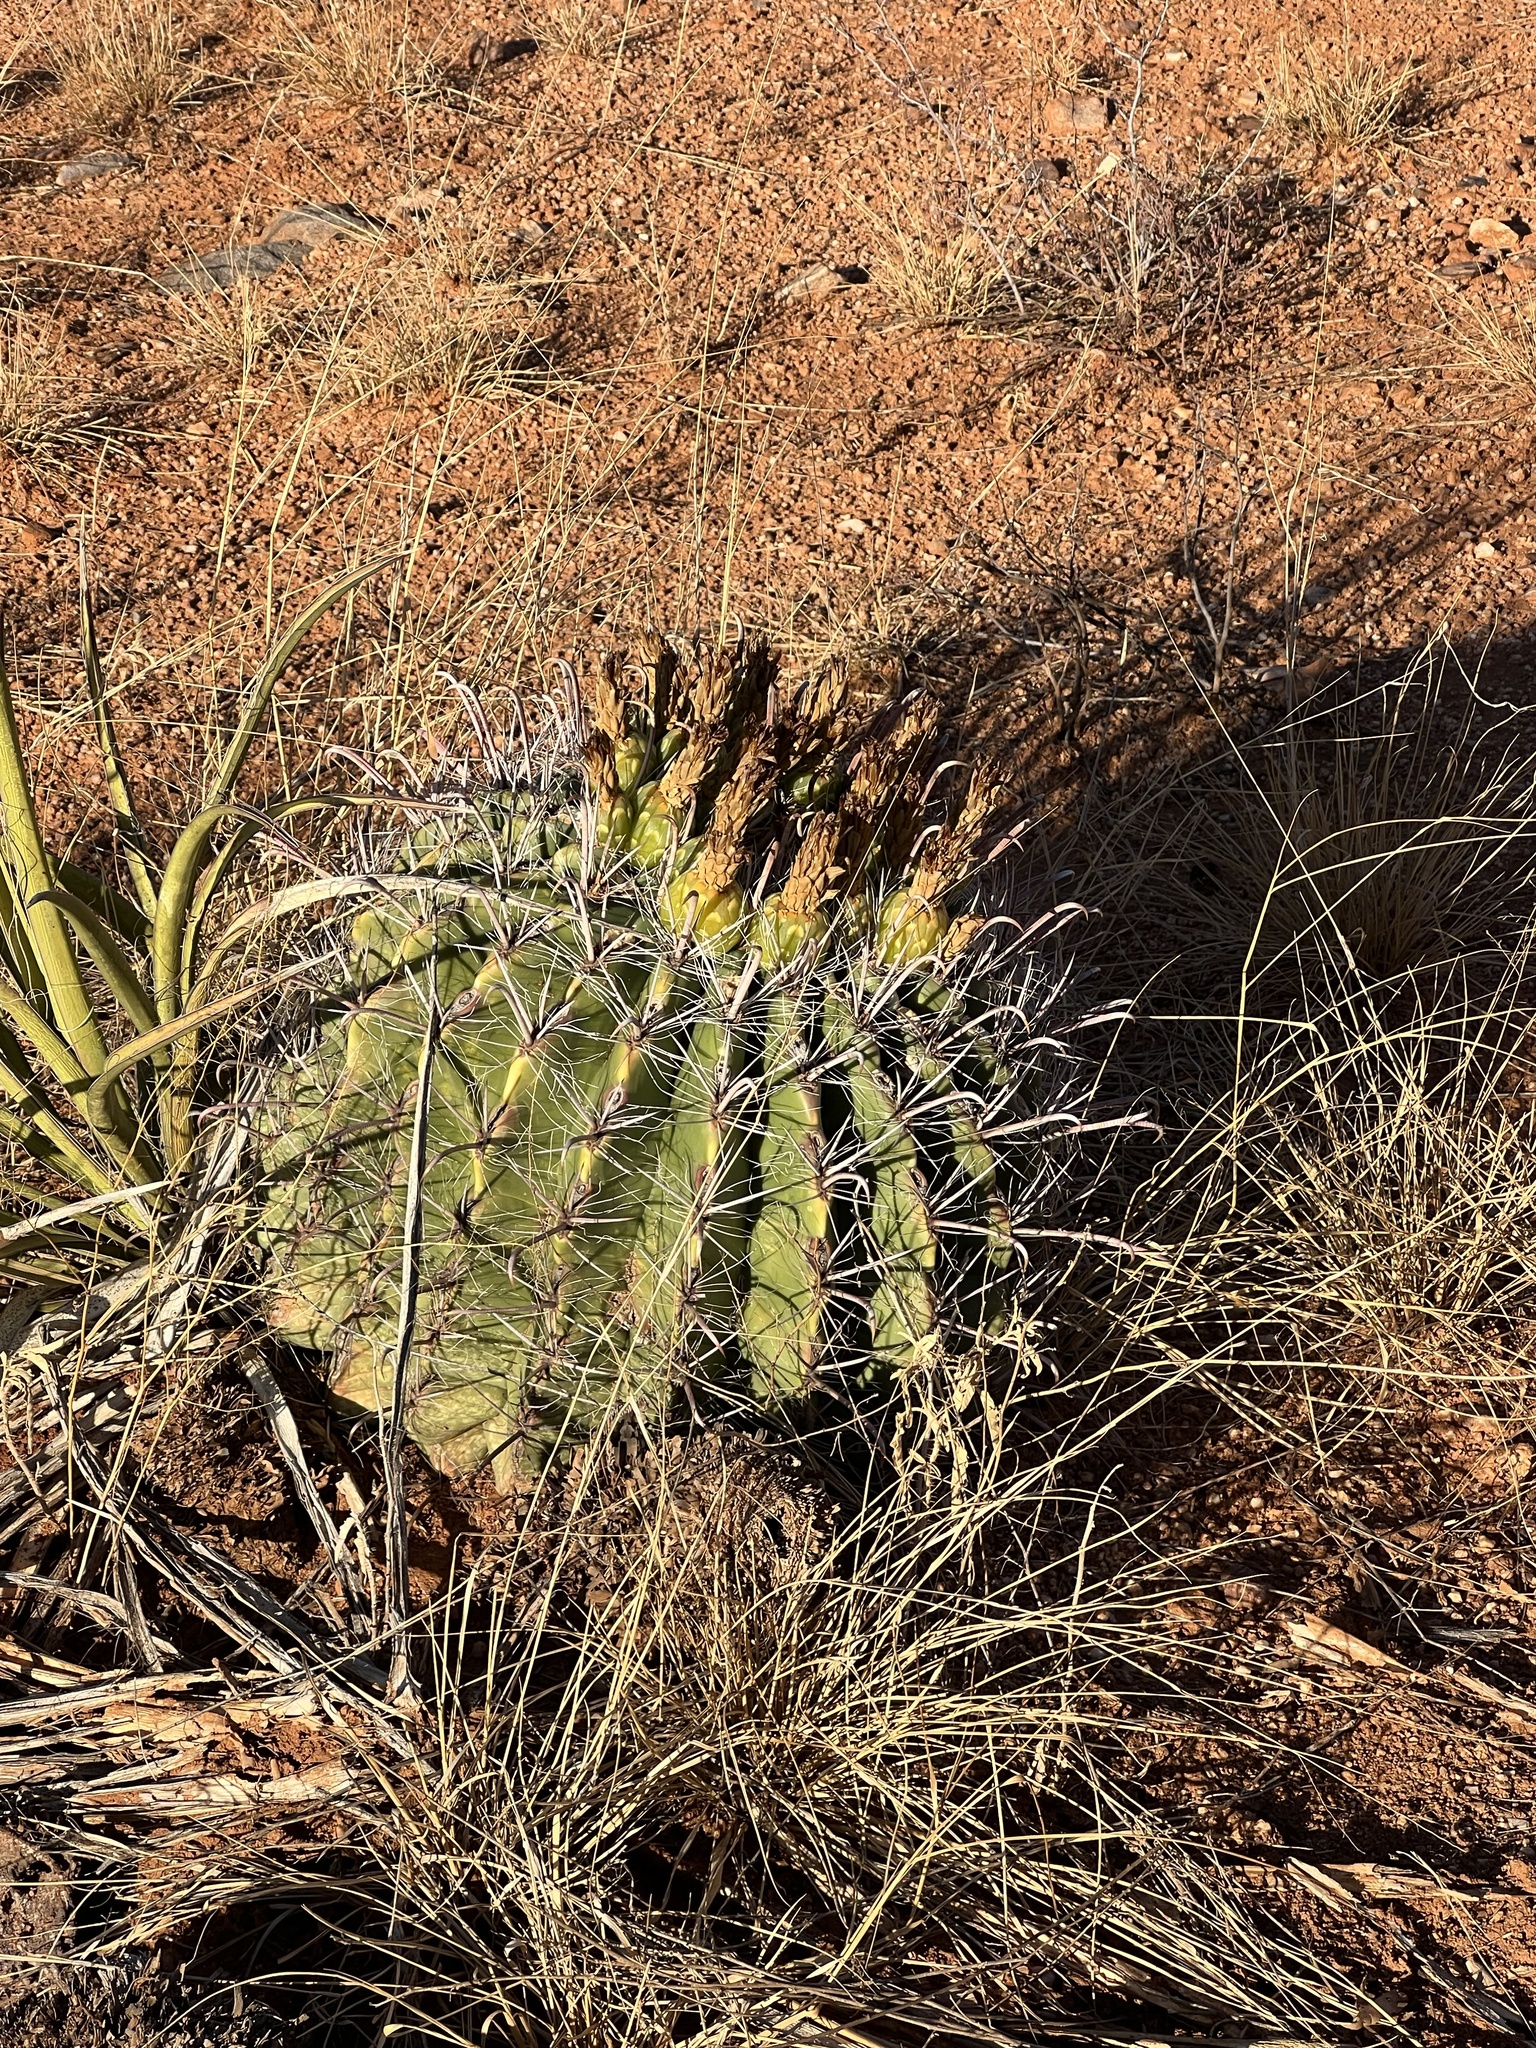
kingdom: Plantae
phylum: Tracheophyta
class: Magnoliopsida
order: Caryophyllales
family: Cactaceae
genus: Ferocactus
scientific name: Ferocactus wislizeni
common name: Candy barrel cactus
